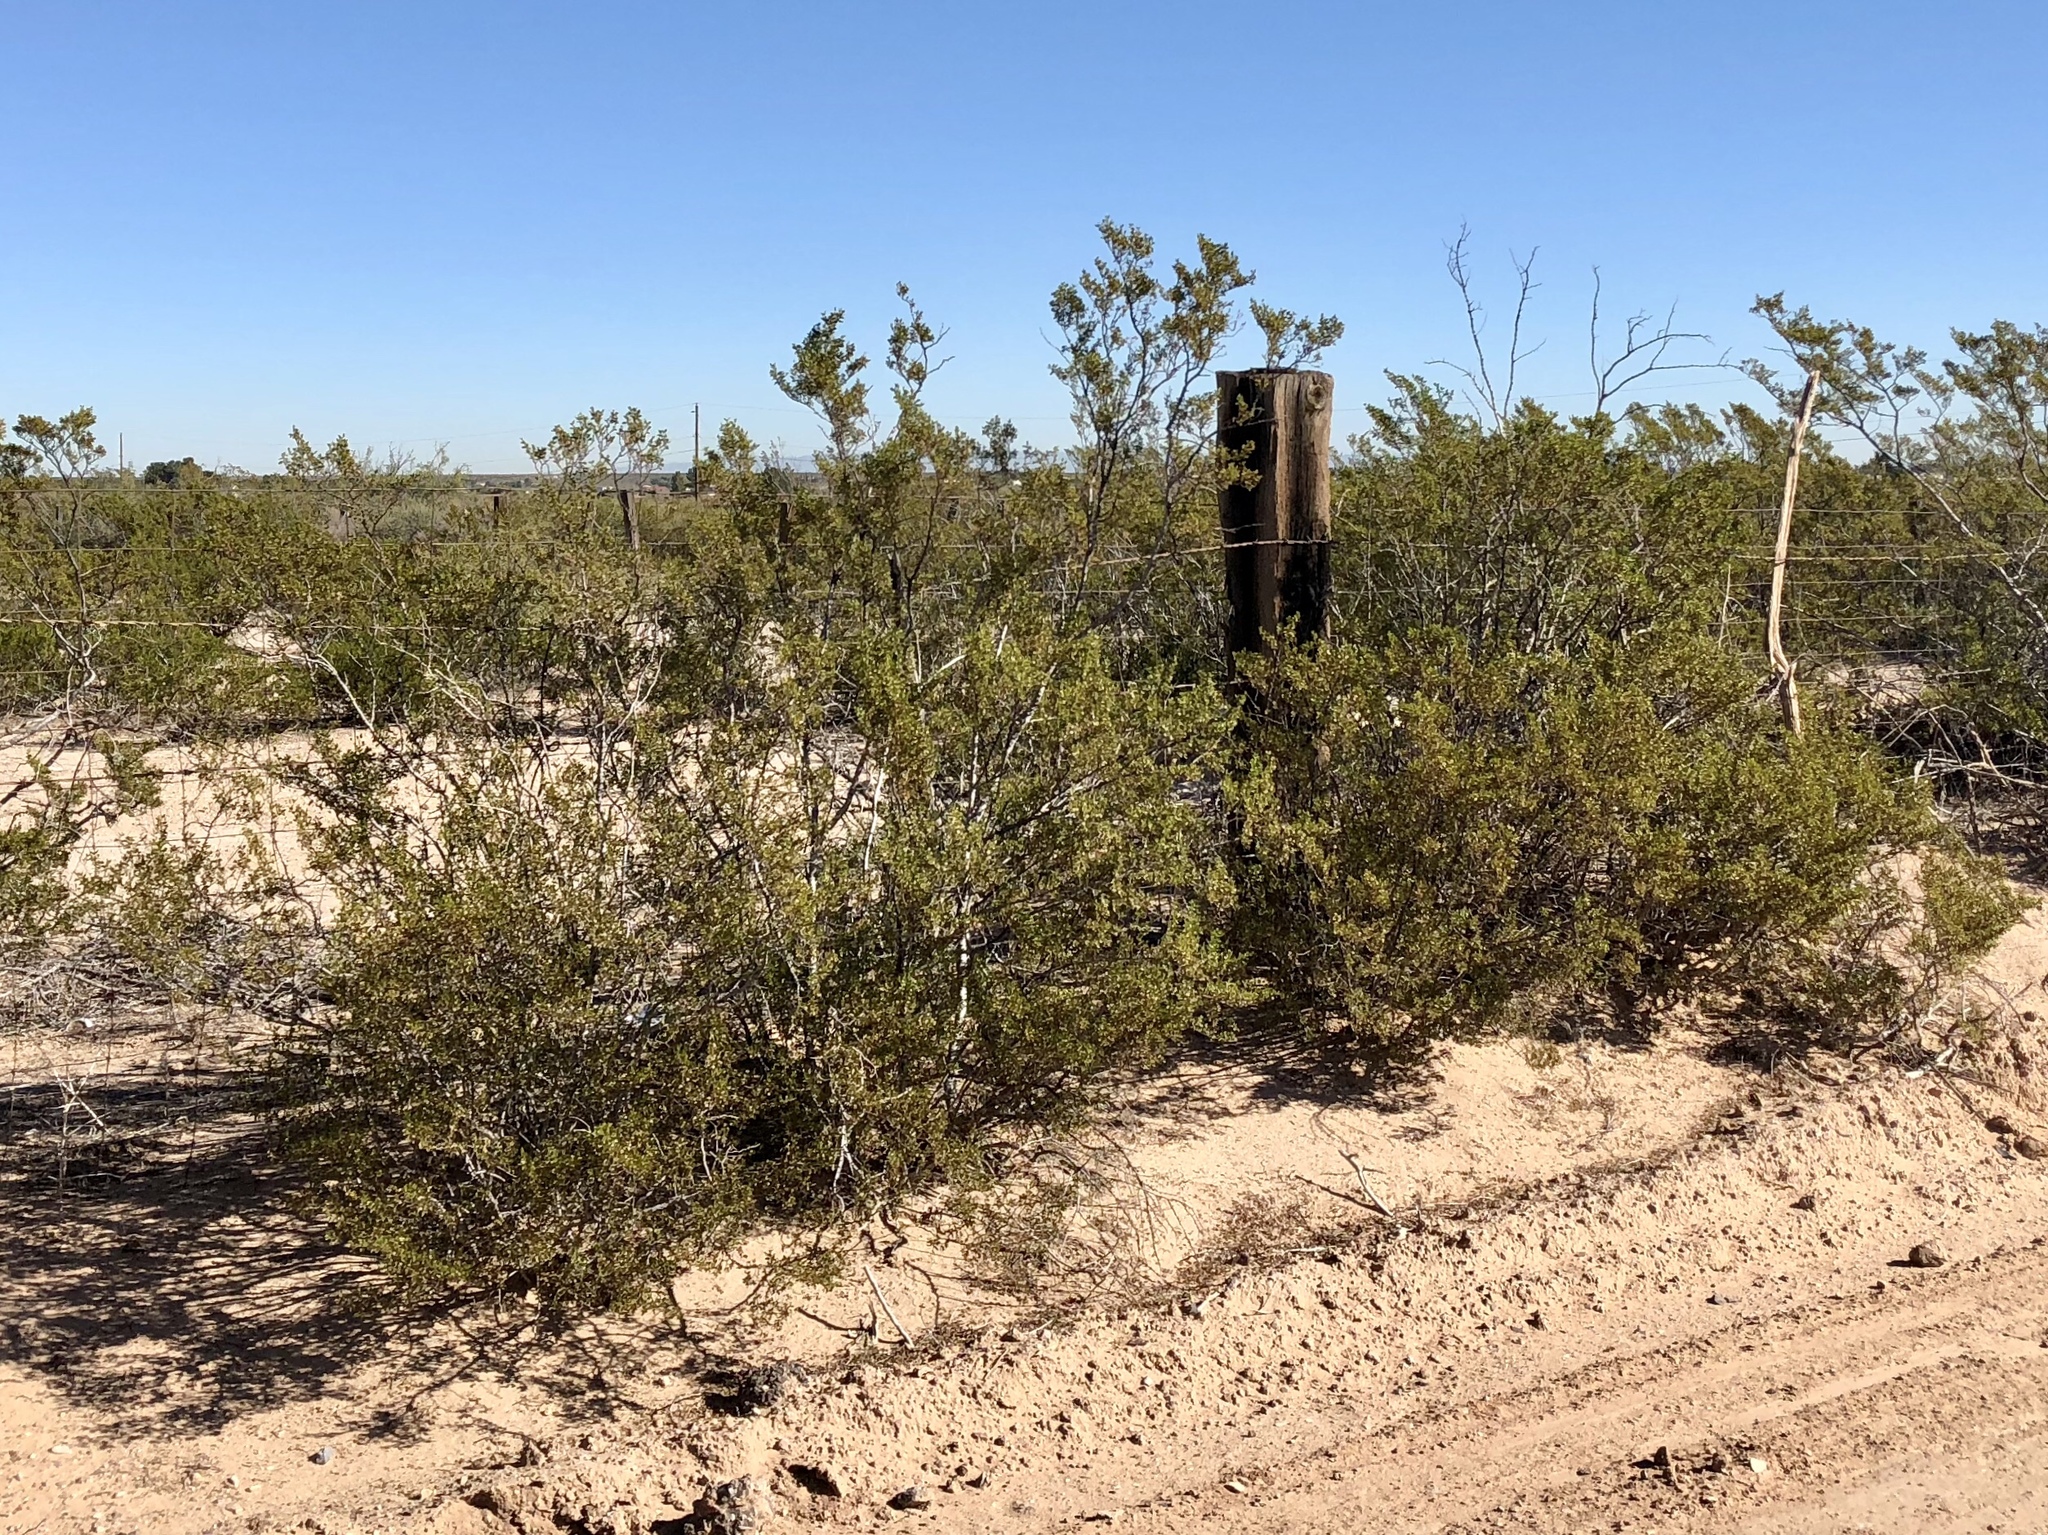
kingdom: Plantae
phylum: Tracheophyta
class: Magnoliopsida
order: Zygophyllales
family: Zygophyllaceae
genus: Larrea
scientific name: Larrea tridentata
